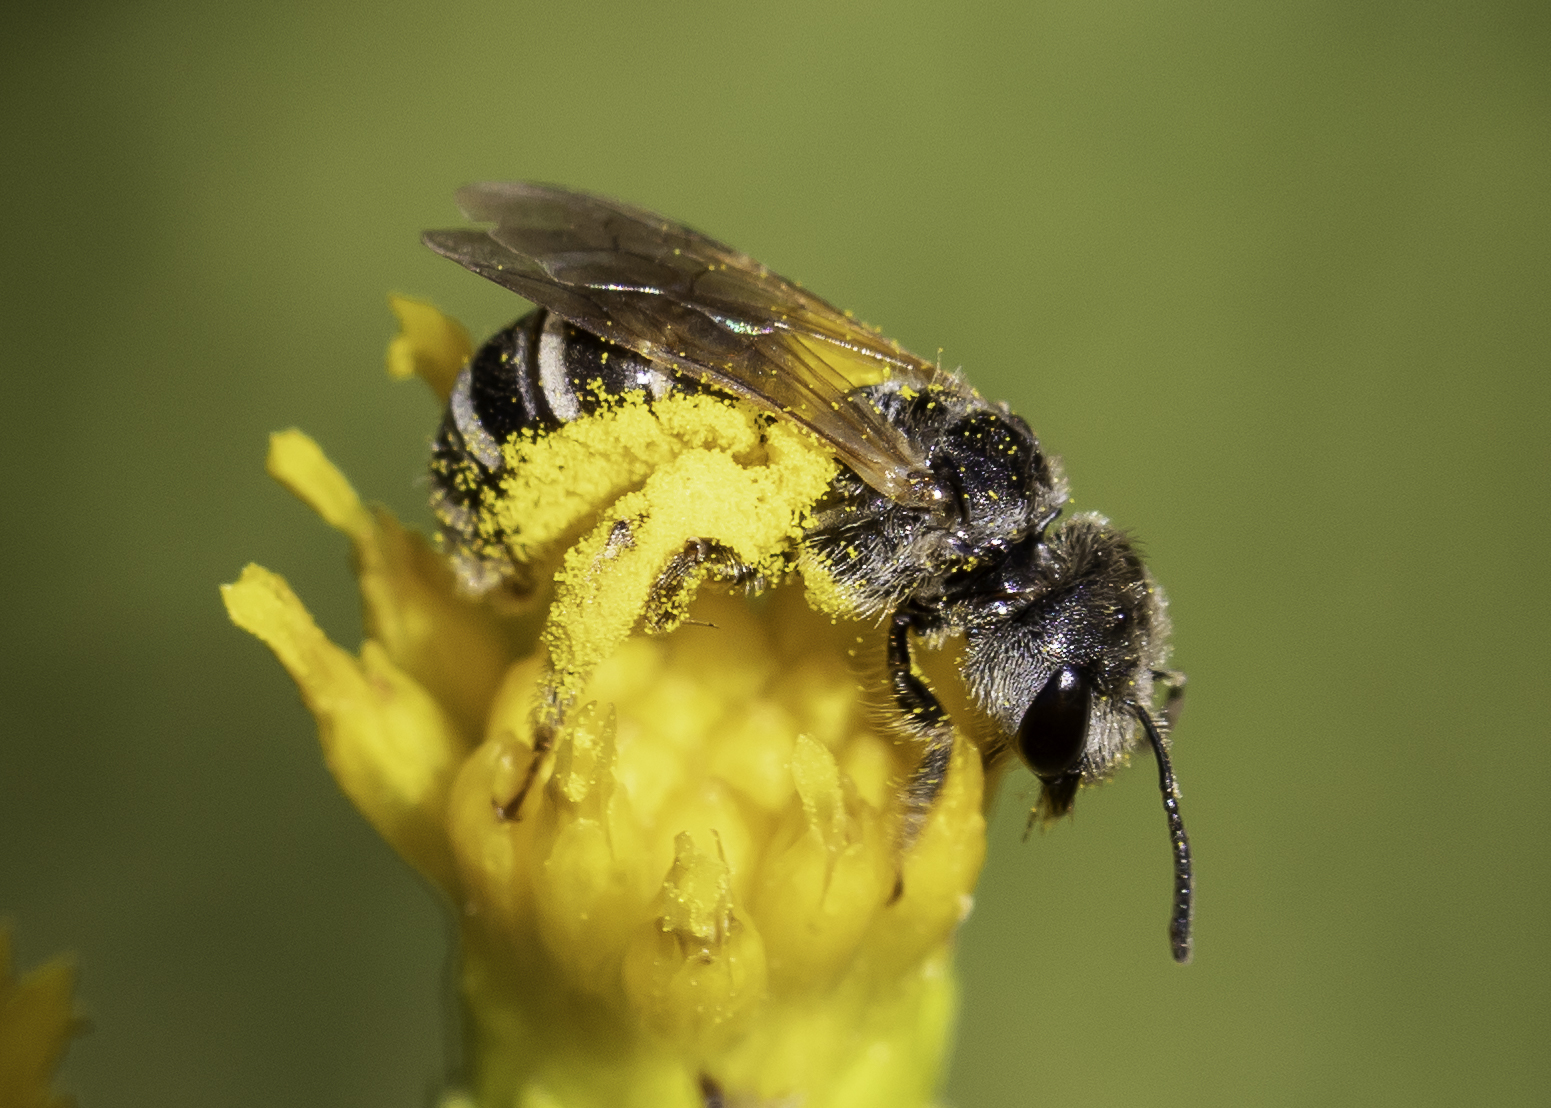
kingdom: Animalia
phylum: Arthropoda
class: Insecta
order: Hymenoptera
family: Halictidae
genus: Halictus
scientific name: Halictus ligatus
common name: Ligated furrow bee
